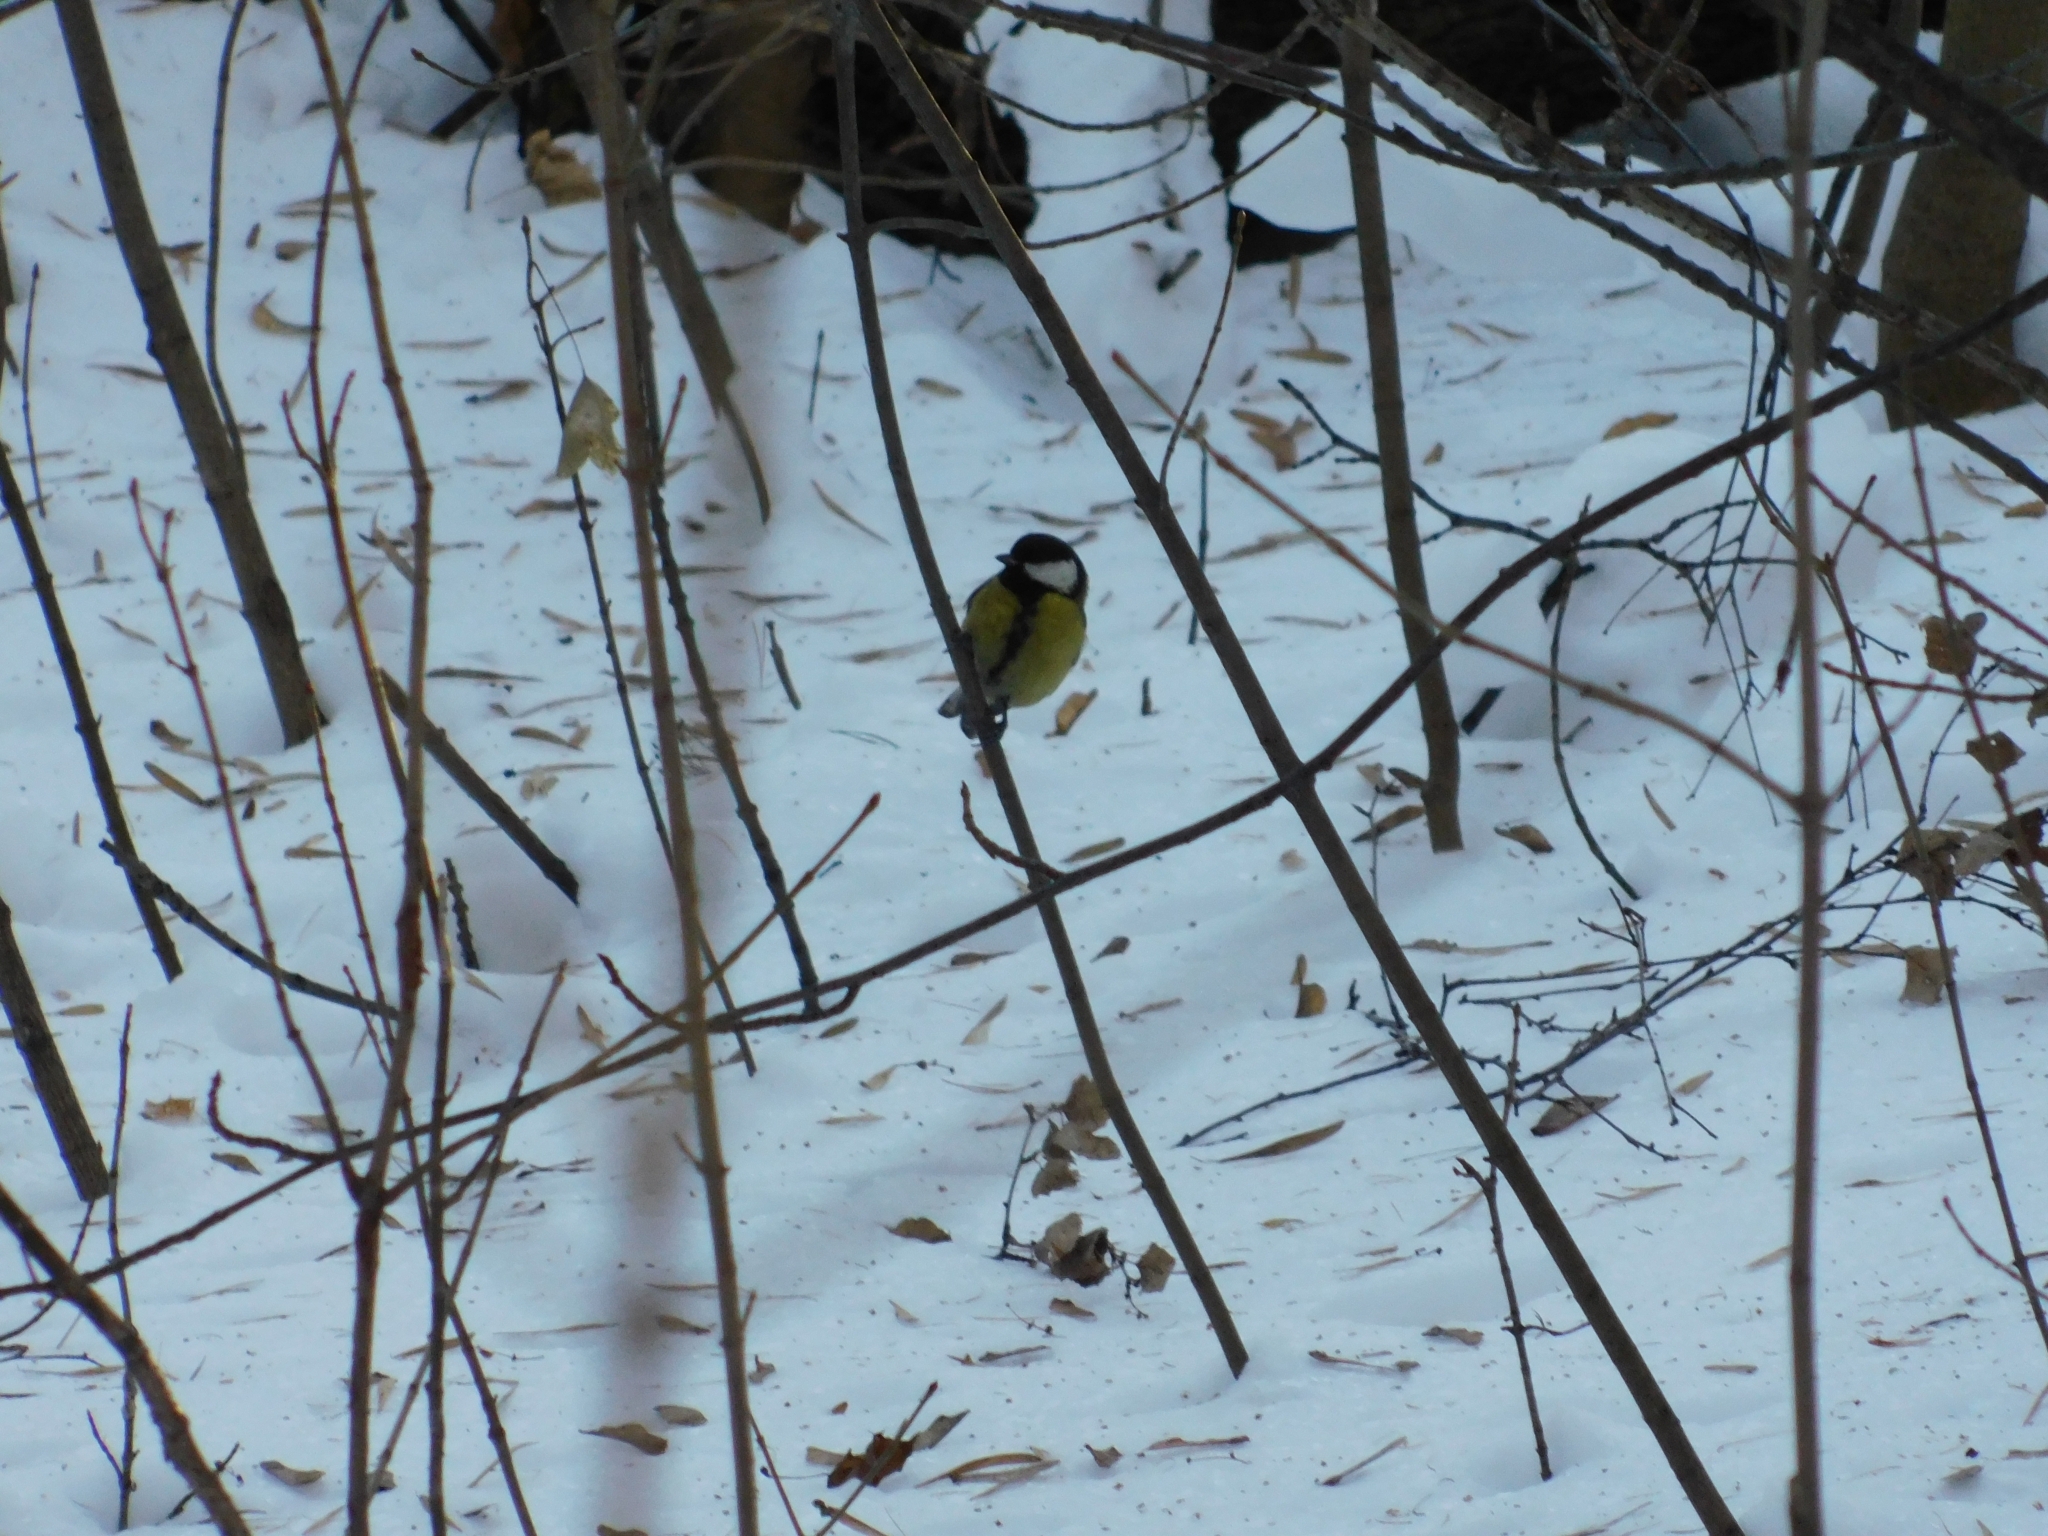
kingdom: Animalia
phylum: Chordata
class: Aves
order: Passeriformes
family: Paridae
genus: Parus
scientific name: Parus major
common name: Great tit
